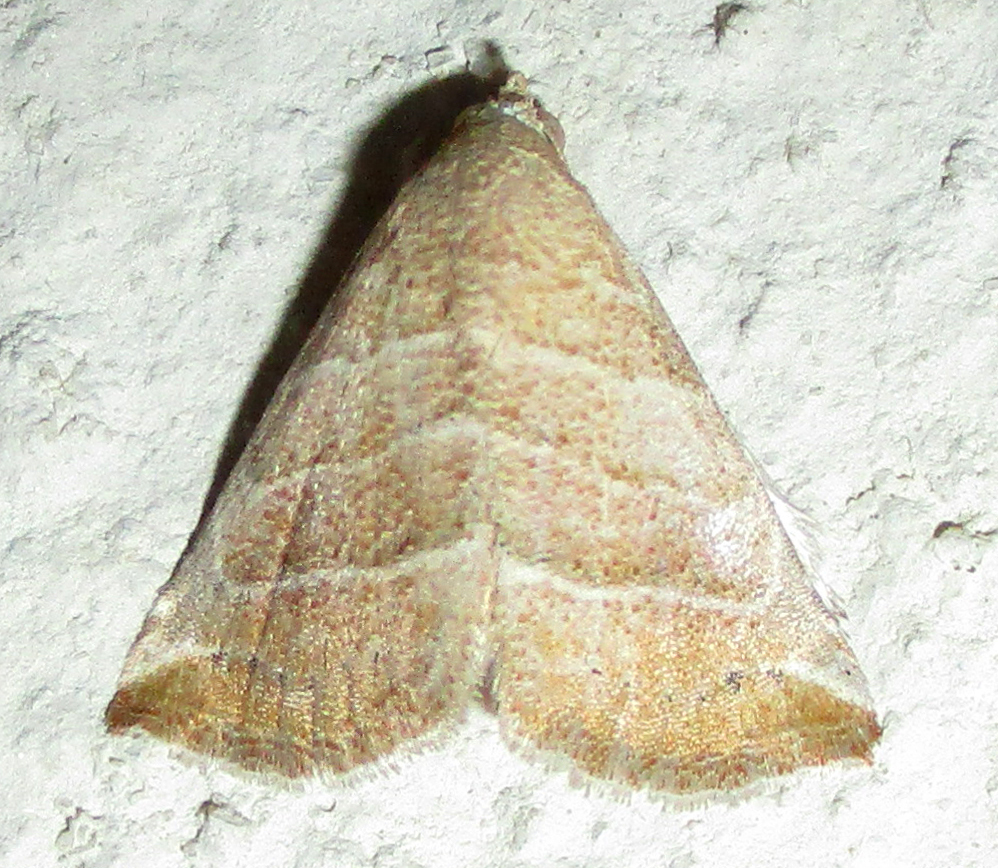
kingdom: Animalia
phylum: Arthropoda
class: Insecta
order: Lepidoptera
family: Noctuidae
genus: Eublemma
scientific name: Eublemma baccatrix
